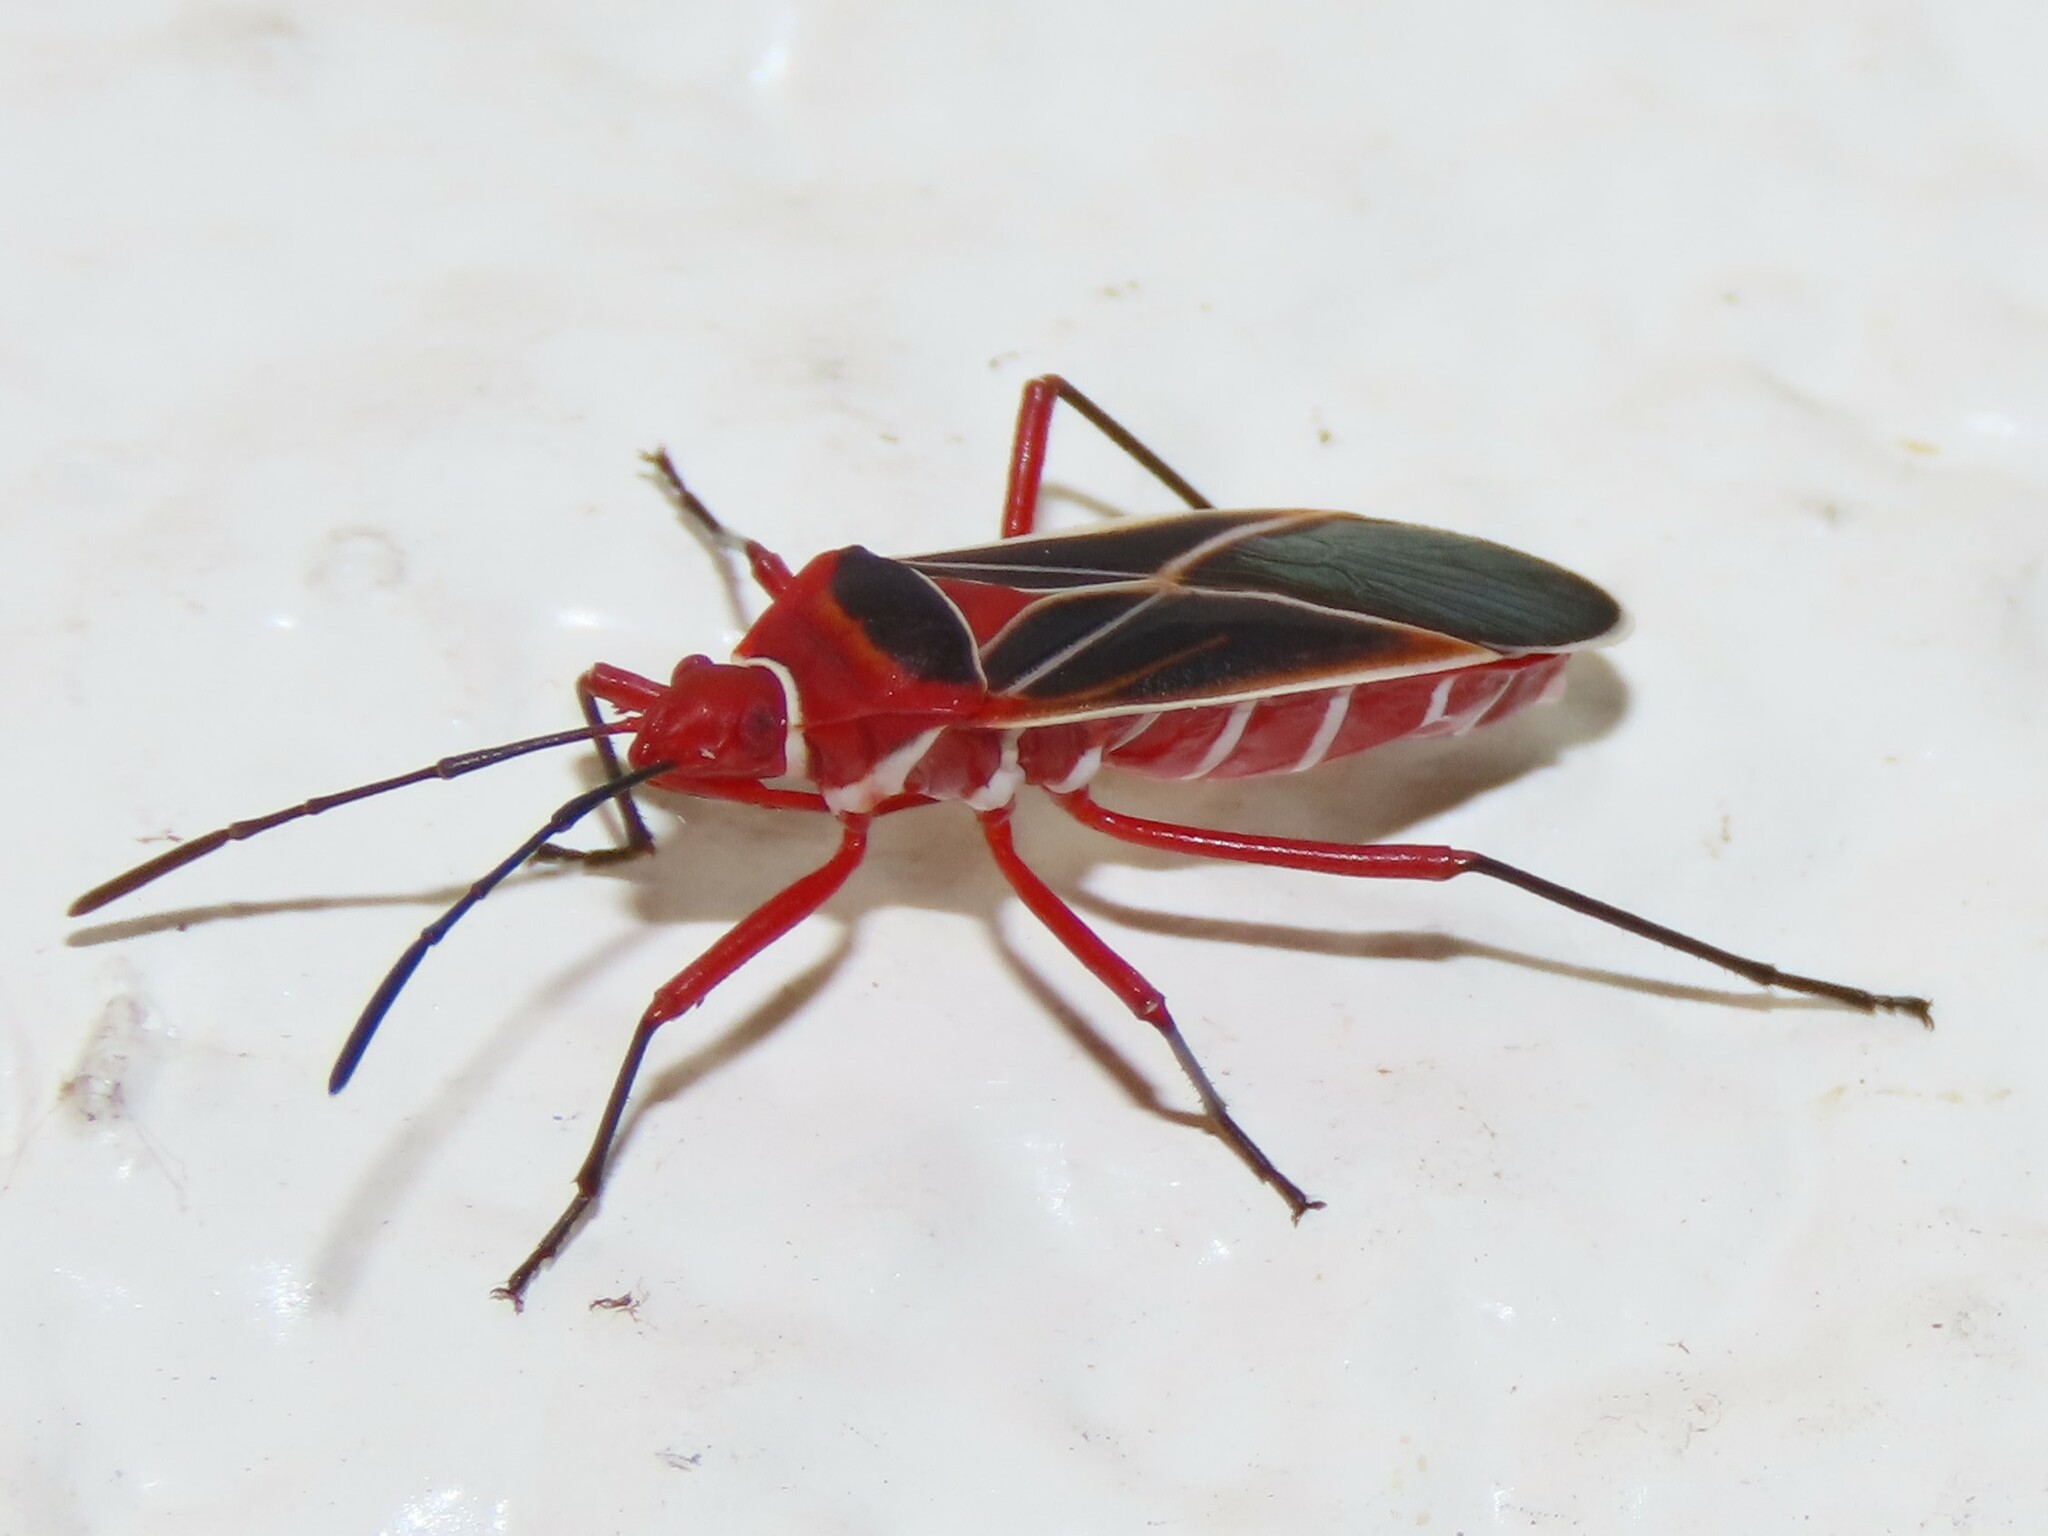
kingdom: Animalia
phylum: Arthropoda
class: Insecta
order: Hemiptera
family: Pyrrhocoridae
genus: Dysdercus
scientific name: Dysdercus suturellus
